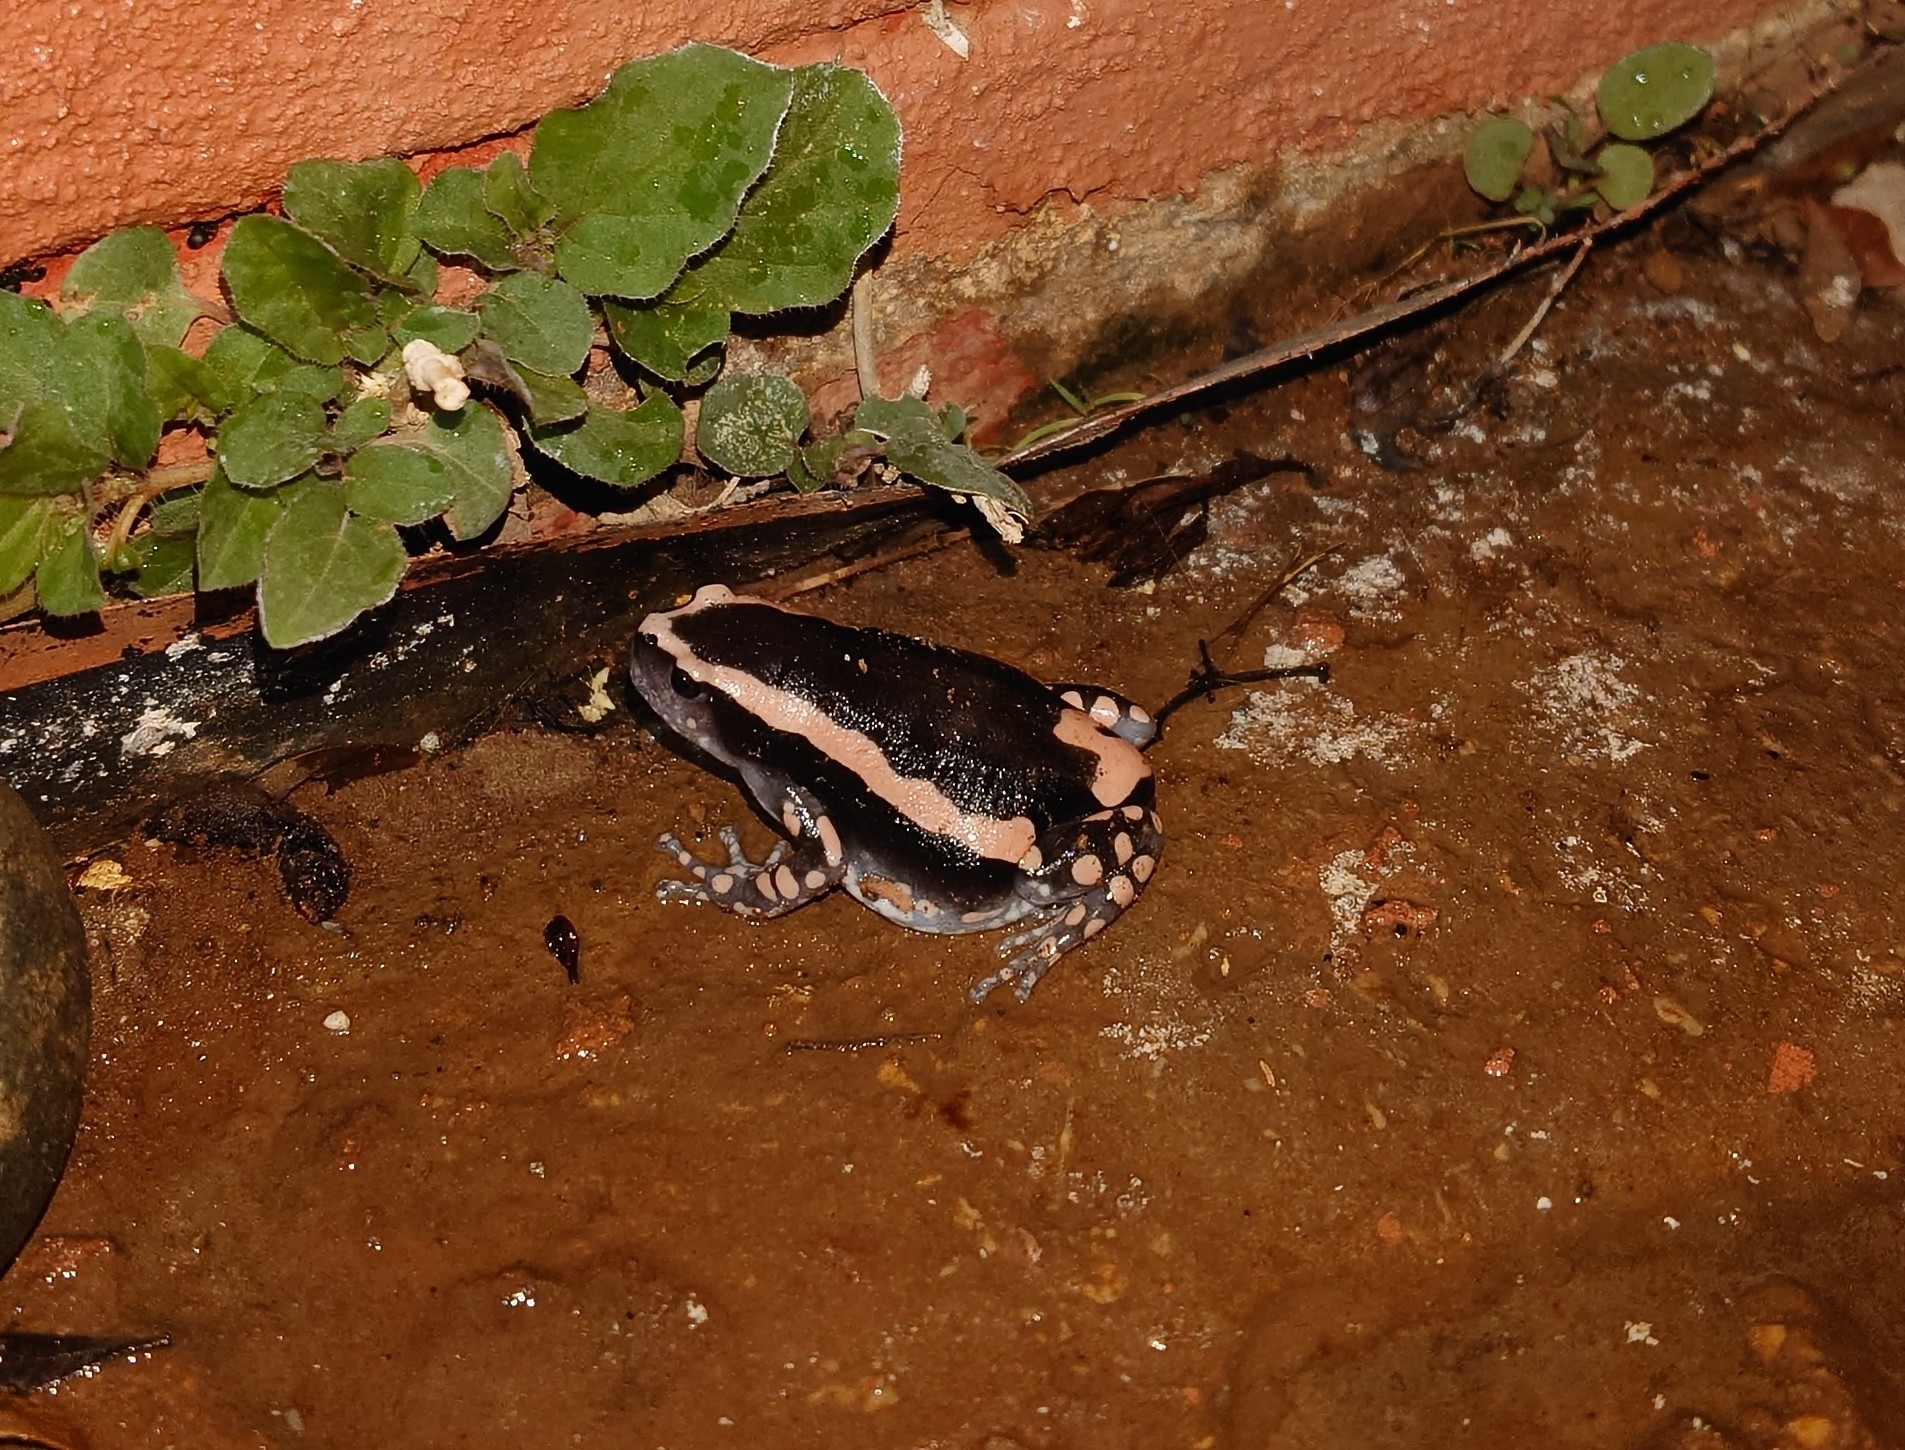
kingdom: Animalia
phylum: Chordata
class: Amphibia
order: Anura
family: Microhylidae
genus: Phrynomantis
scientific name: Phrynomantis bifasciatus
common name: Banded rubber frog
